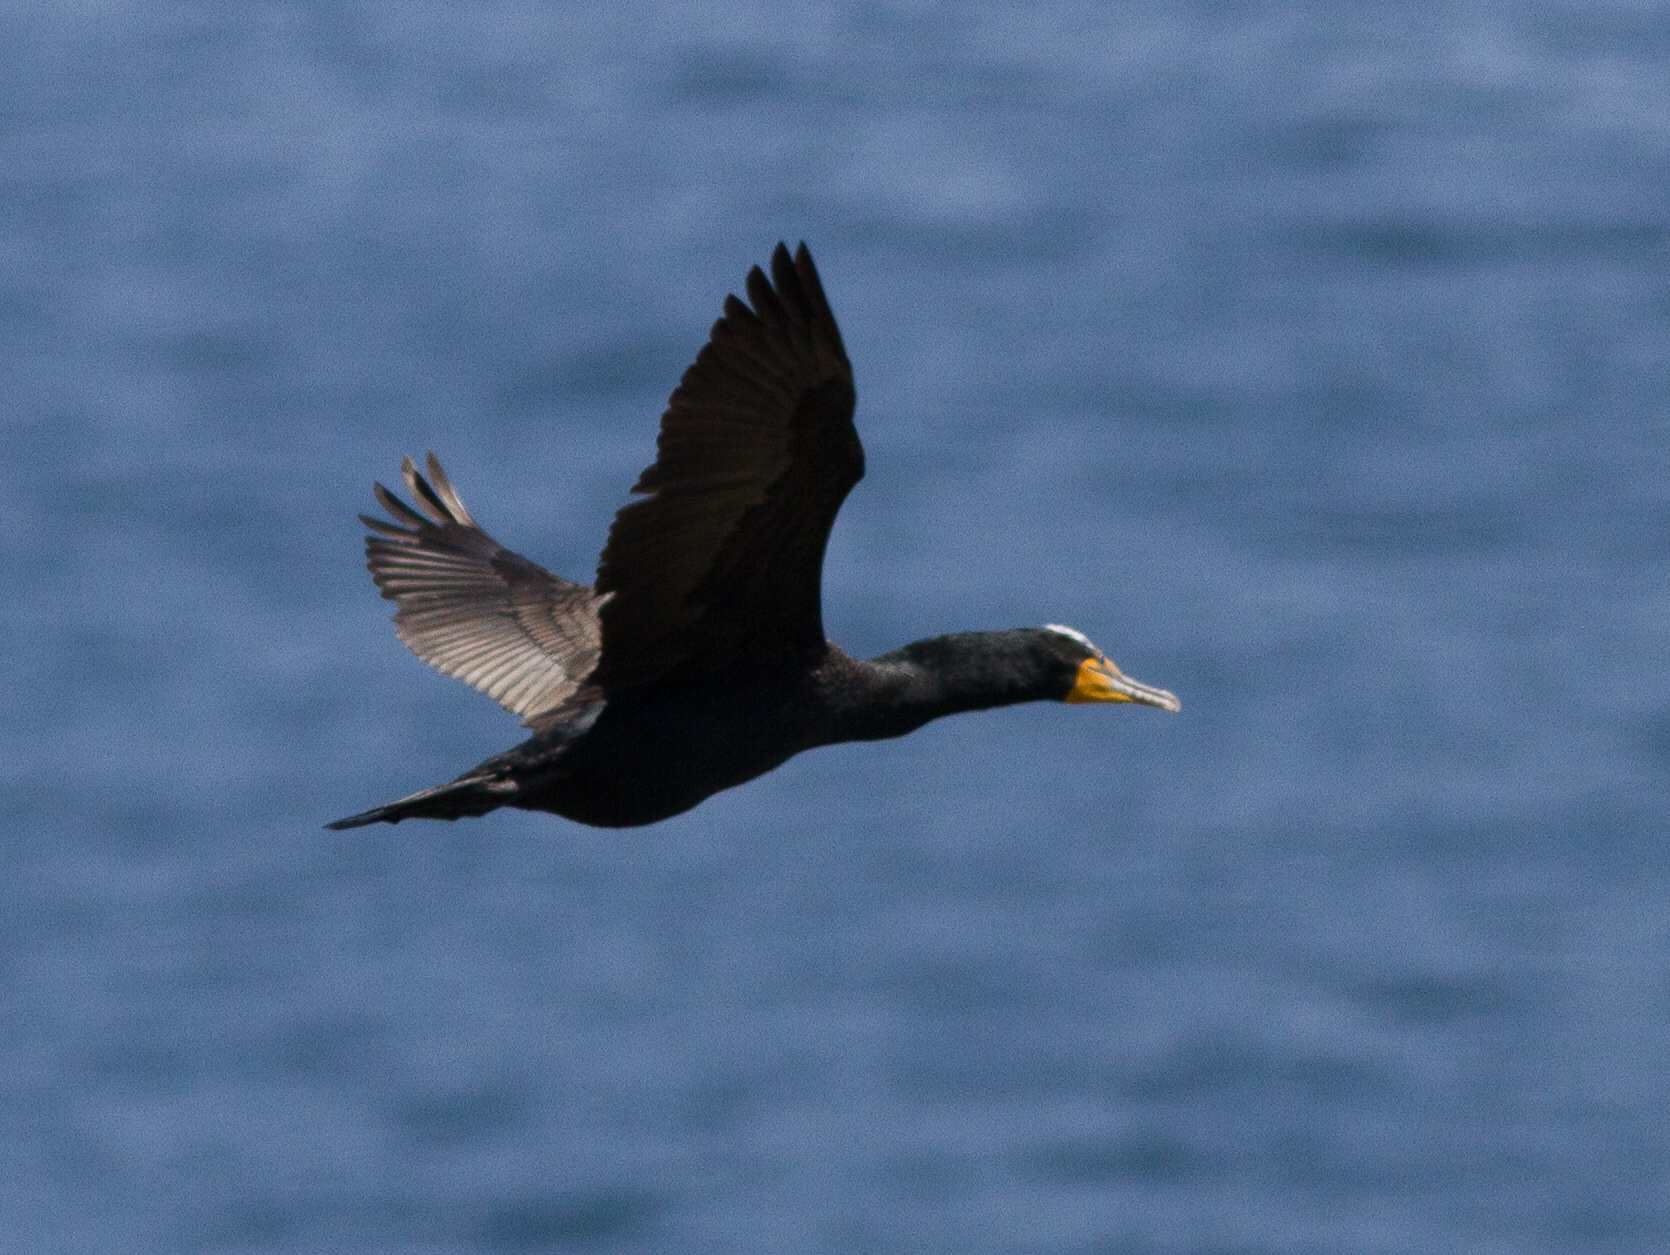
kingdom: Animalia
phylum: Chordata
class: Aves
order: Suliformes
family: Phalacrocoracidae
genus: Phalacrocorax
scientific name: Phalacrocorax auritus
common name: Double-crested cormorant
